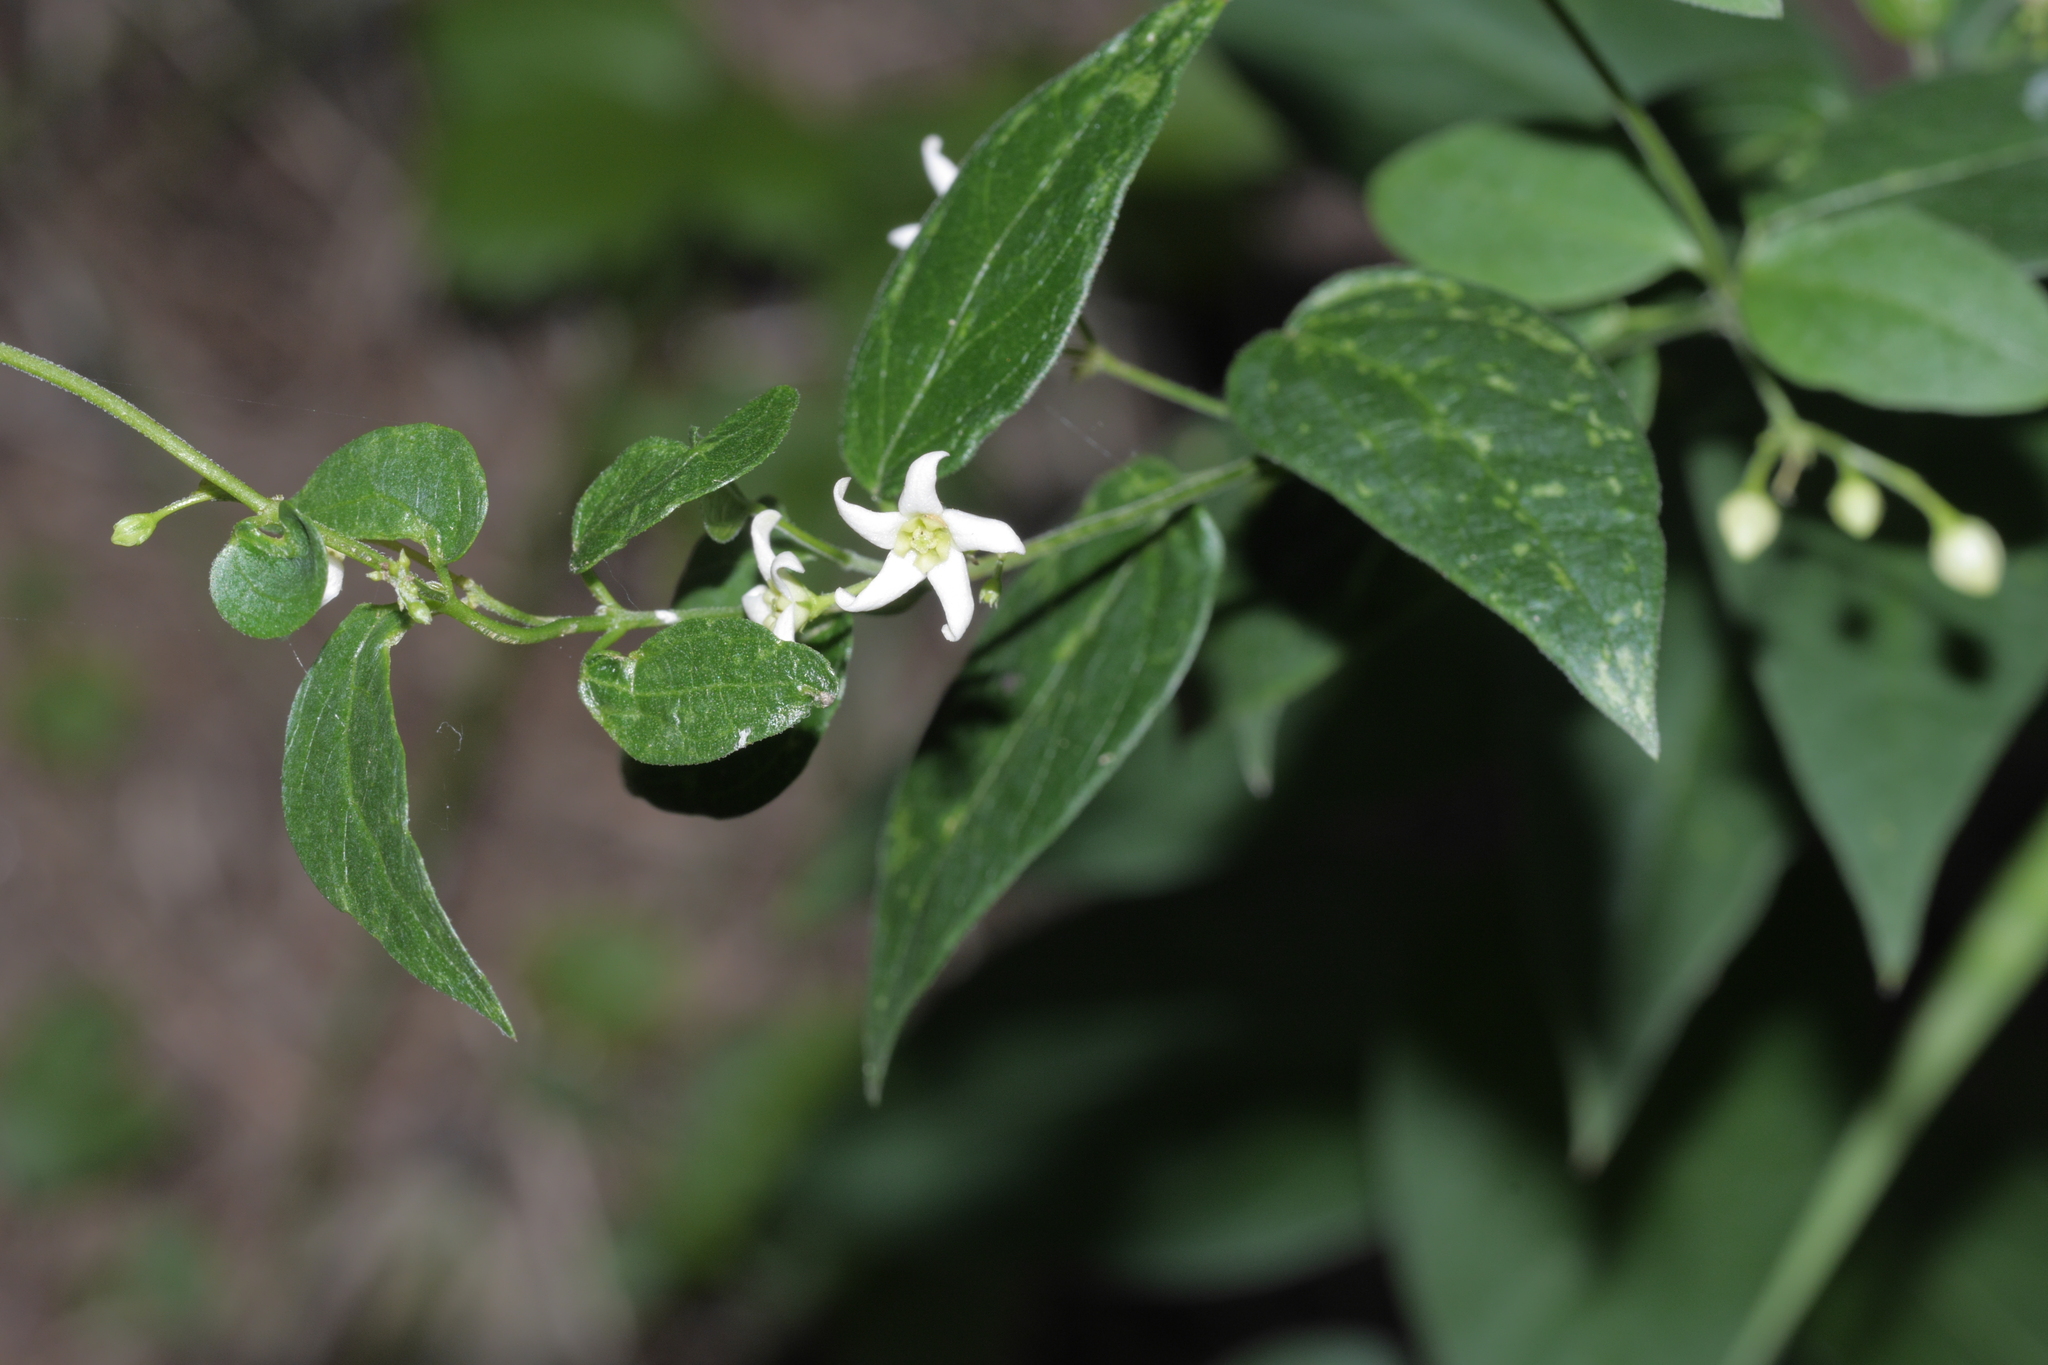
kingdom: Plantae
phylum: Tracheophyta
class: Magnoliopsida
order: Gentianales
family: Apocynaceae
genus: Vincetoxicum
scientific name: Vincetoxicum hirundinaria
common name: White swallowwort
